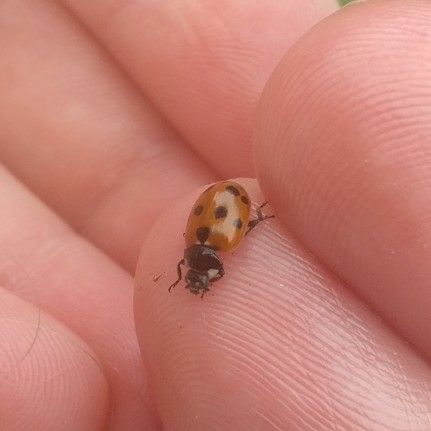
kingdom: Animalia
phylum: Arthropoda
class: Insecta
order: Coleoptera
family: Coccinellidae
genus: Coccinella
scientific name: Coccinella undecimpunctata
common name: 11-spot ladybird
